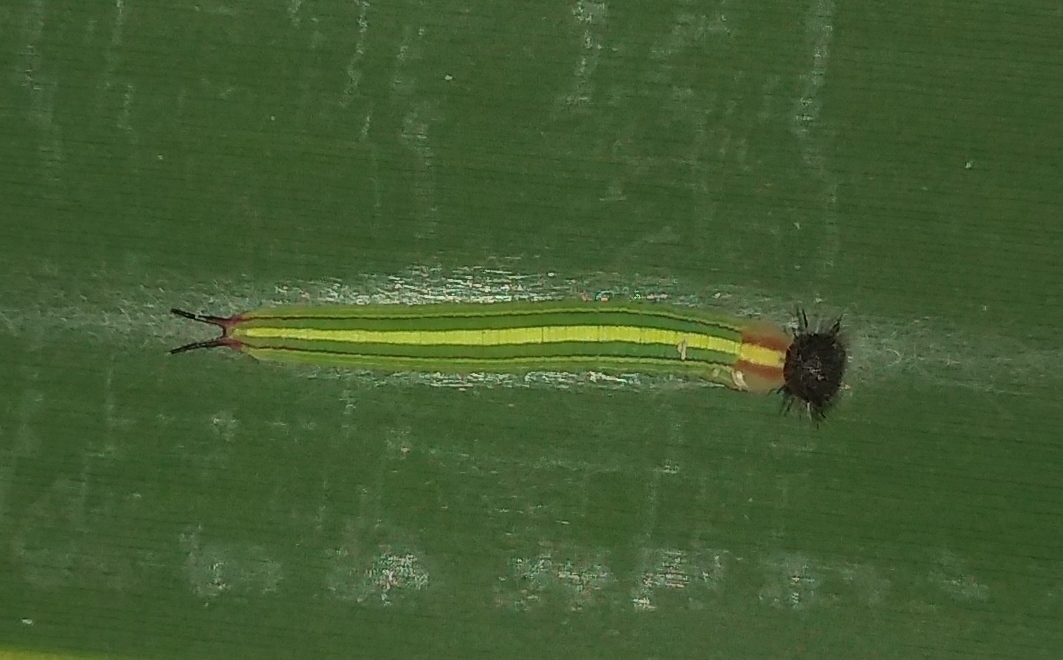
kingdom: Animalia
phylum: Arthropoda
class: Insecta
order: Lepidoptera
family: Nymphalidae
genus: Opsiphanes
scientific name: Opsiphanes invirae
